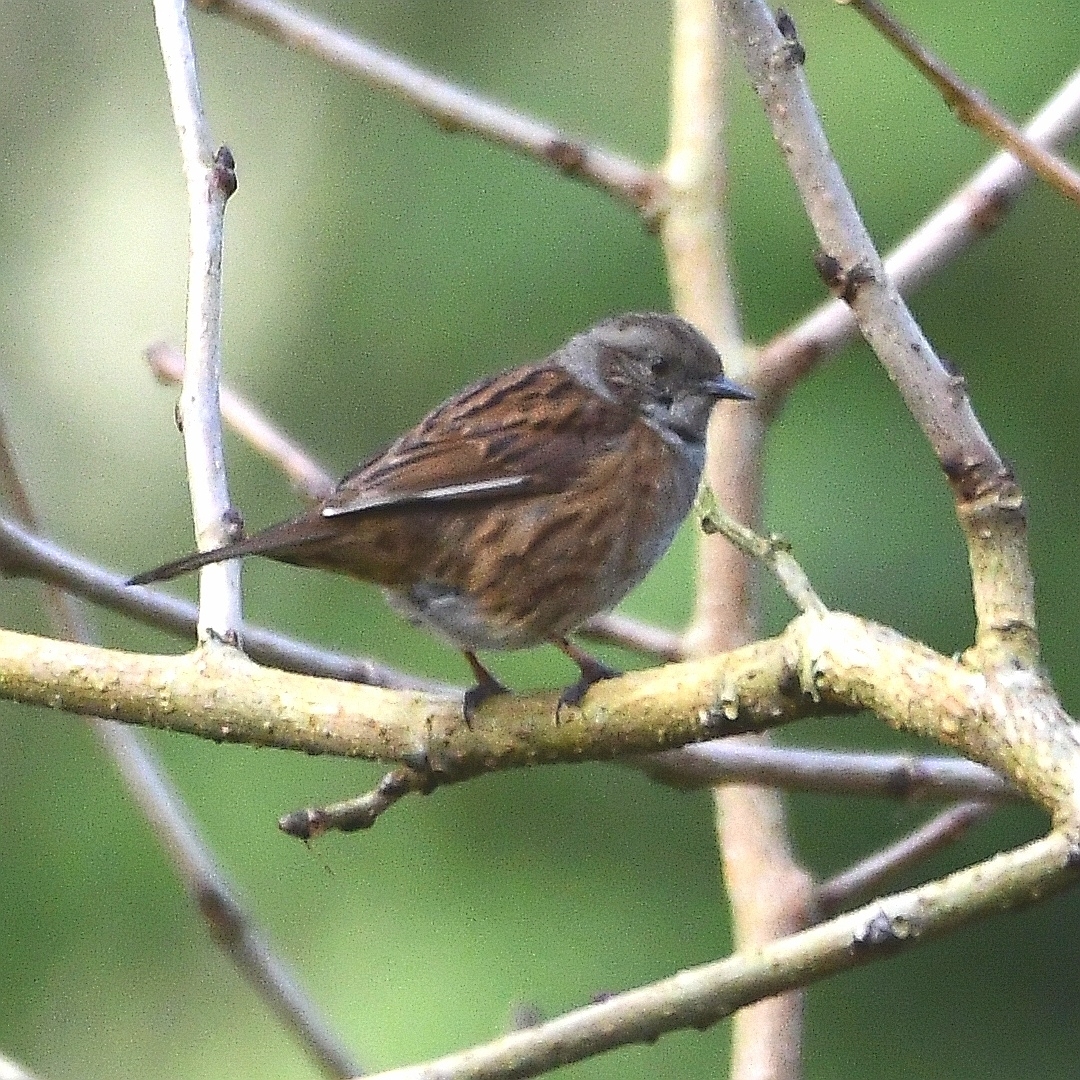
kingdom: Animalia
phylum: Chordata
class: Aves
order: Passeriformes
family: Prunellidae
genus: Prunella
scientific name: Prunella modularis
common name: Dunnock
